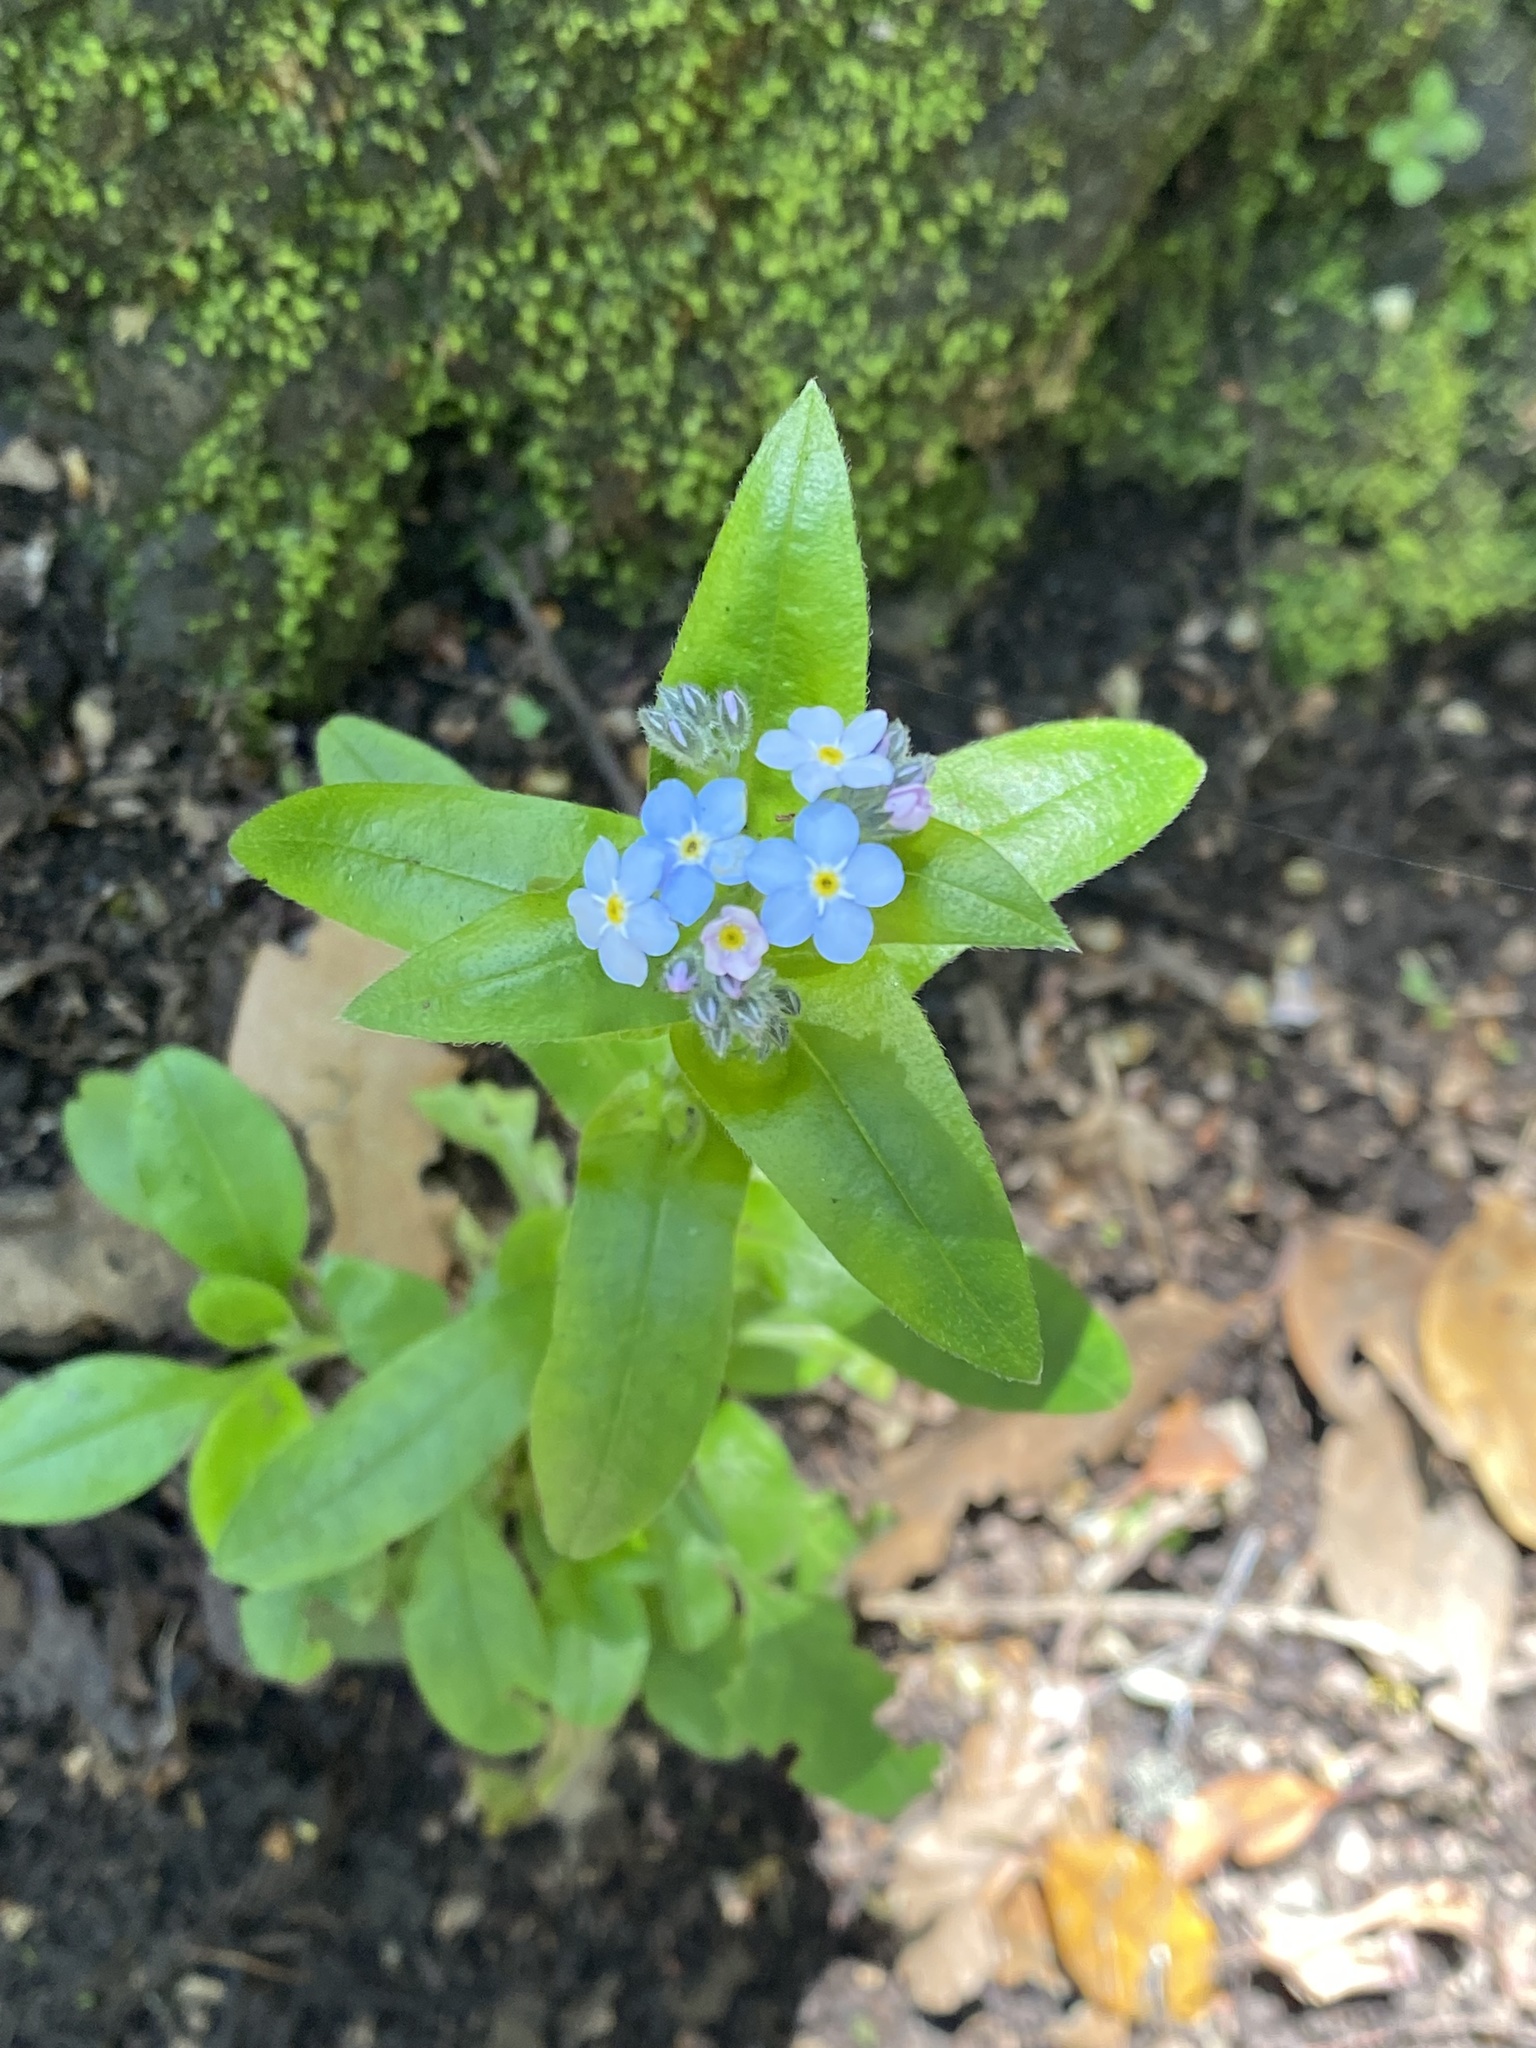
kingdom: Plantae
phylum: Tracheophyta
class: Magnoliopsida
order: Boraginales
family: Boraginaceae
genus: Myosotis
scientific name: Myosotis latifolia
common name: Broadleaf forget-me-not
